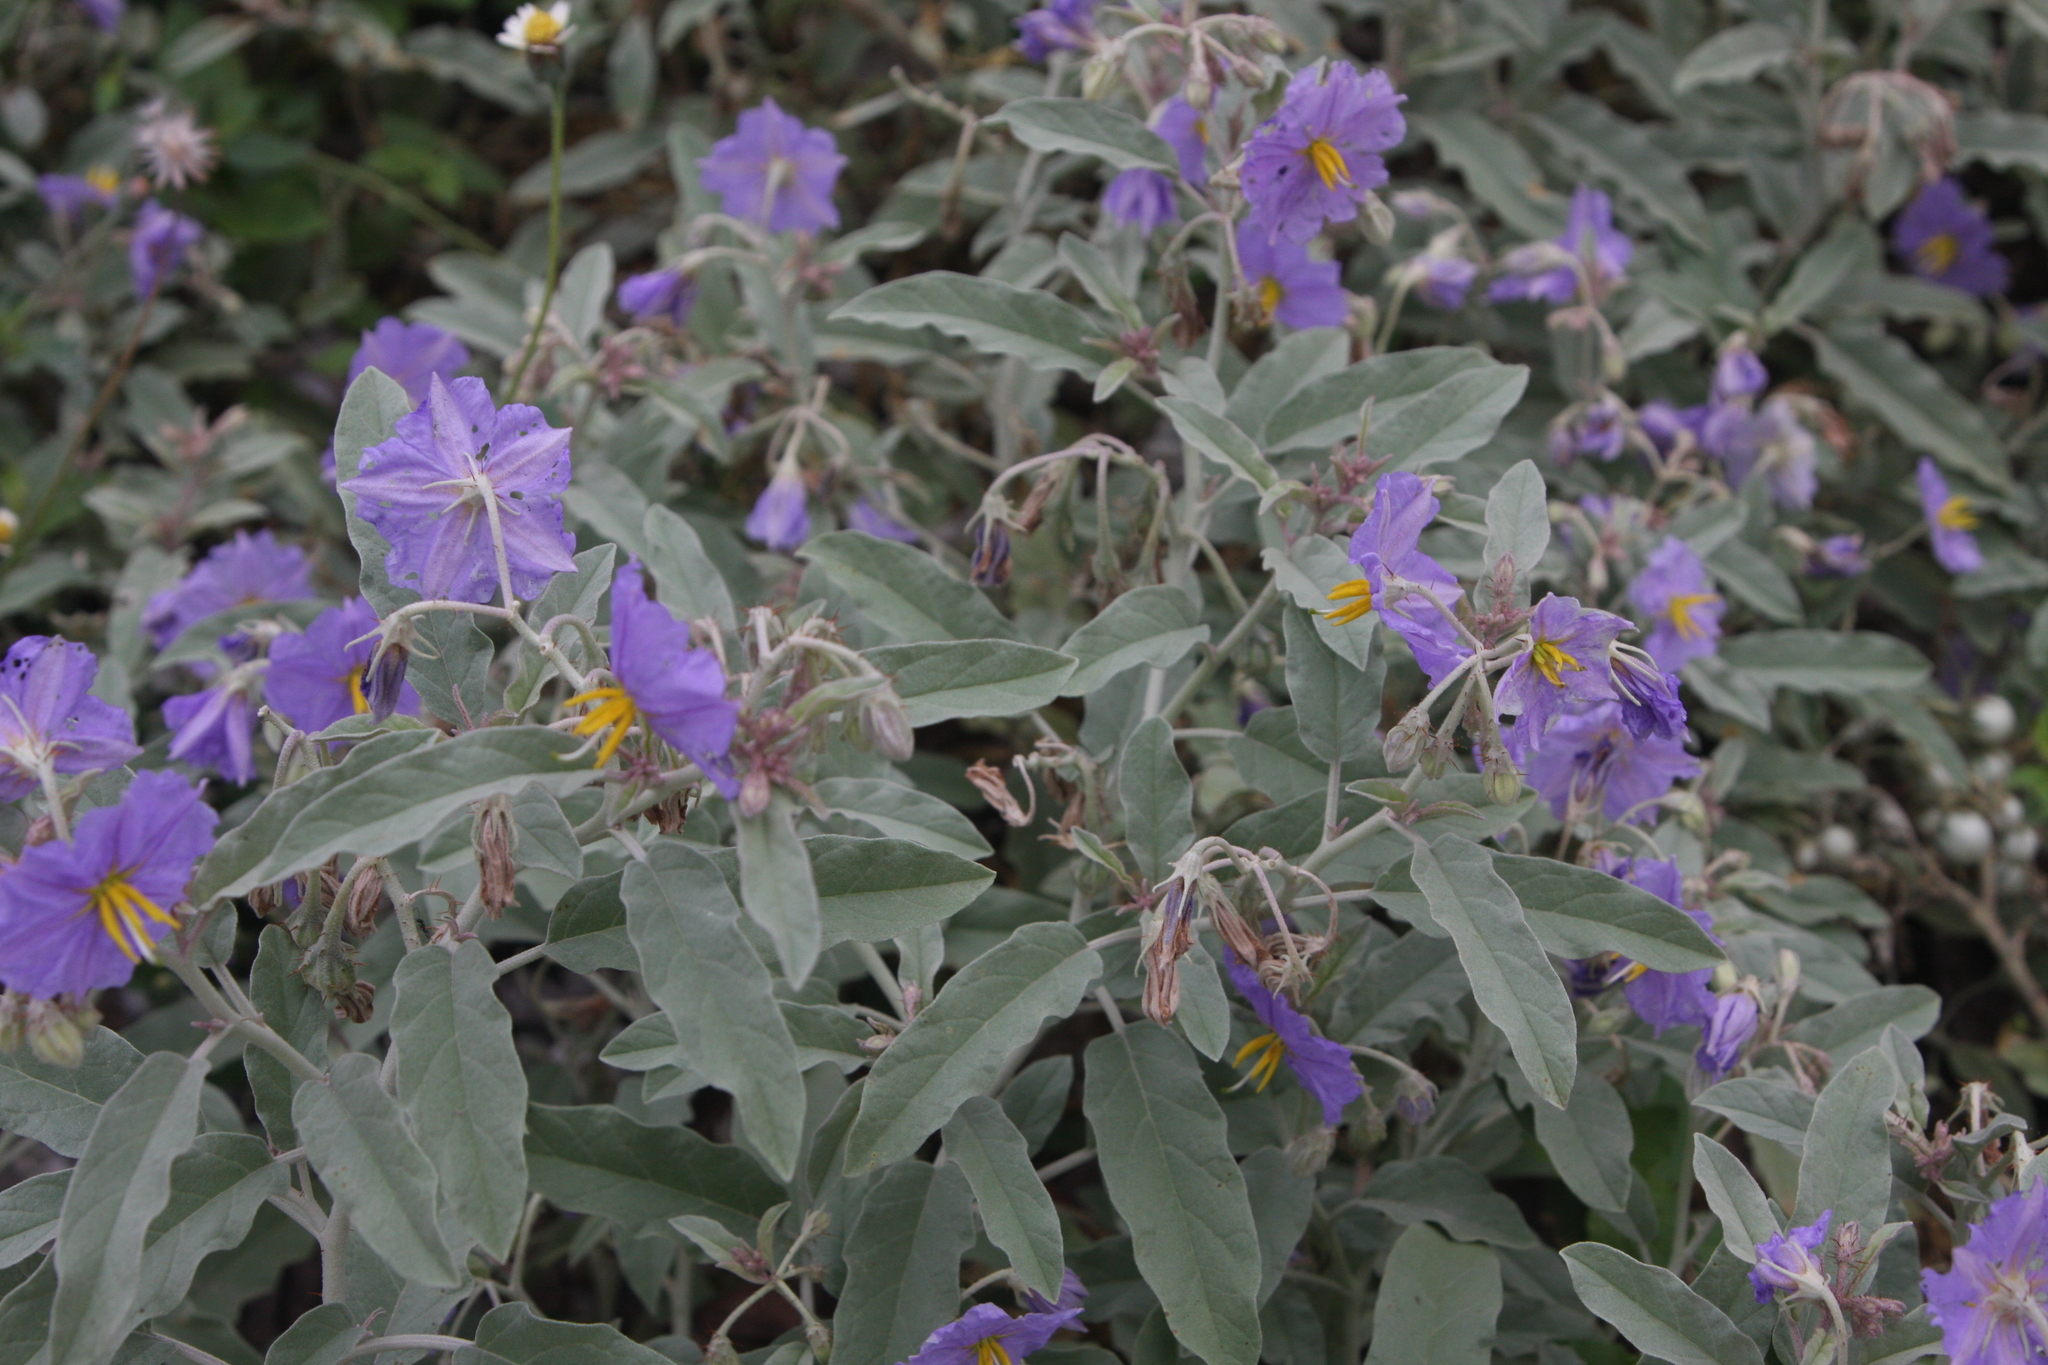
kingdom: Plantae
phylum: Tracheophyta
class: Magnoliopsida
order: Solanales
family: Solanaceae
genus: Solanum
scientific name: Solanum elaeagnifolium
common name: Silverleaf nightshade
